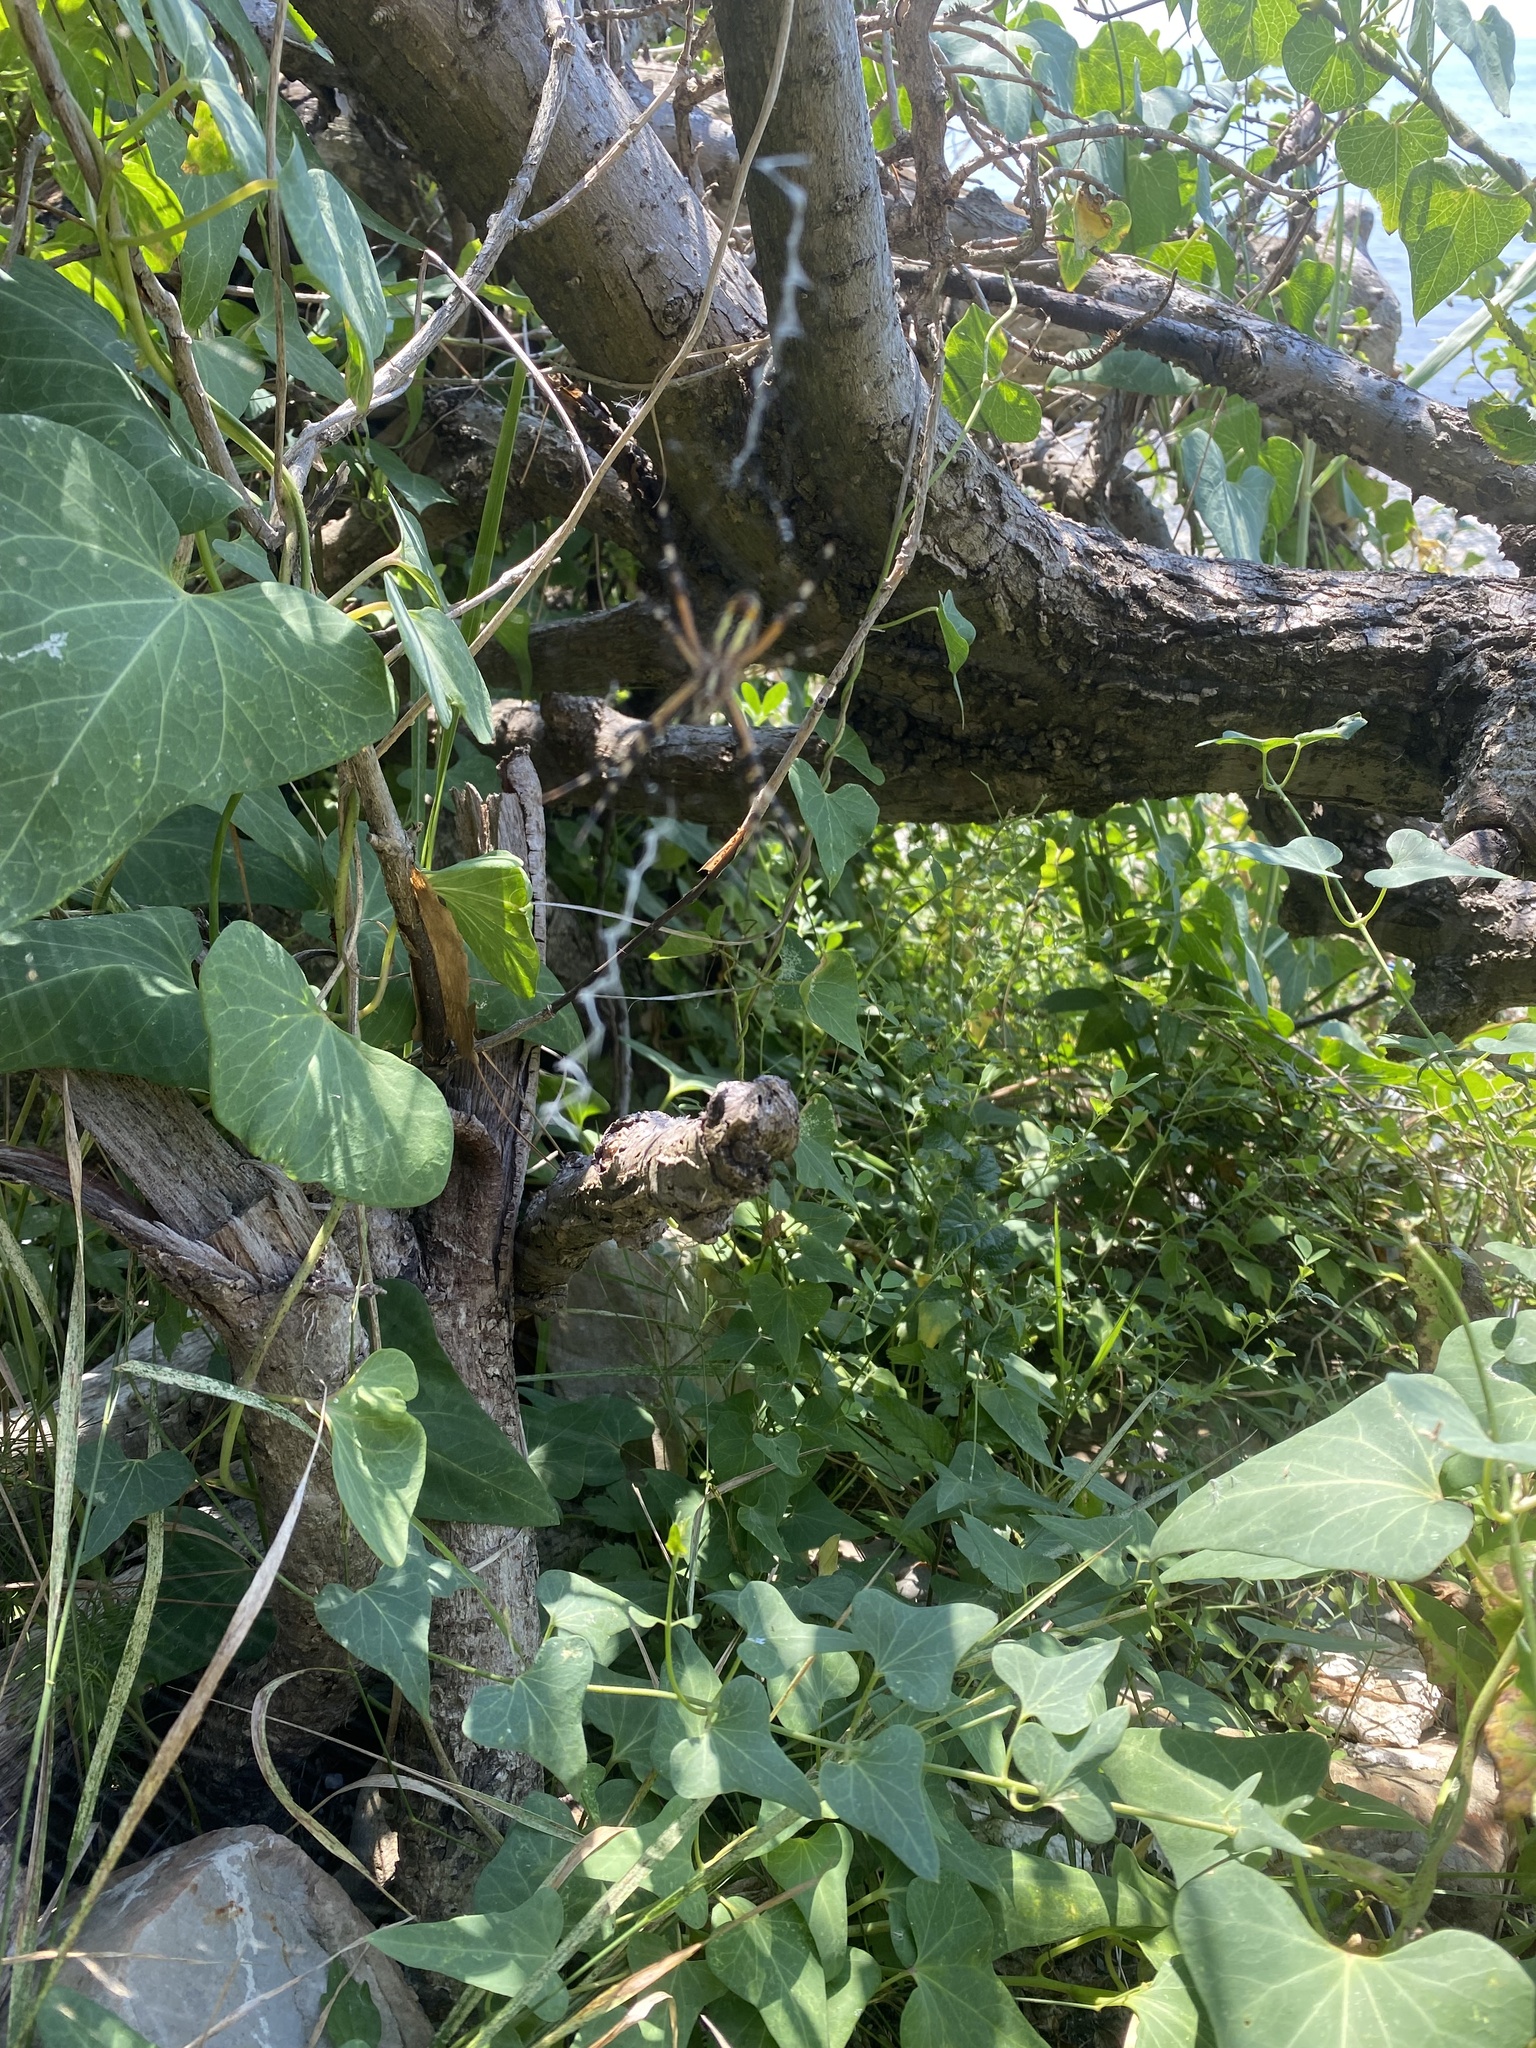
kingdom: Plantae
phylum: Tracheophyta
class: Magnoliopsida
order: Gentianales
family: Apocynaceae
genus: Cynanchum
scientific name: Cynanchum acutum
